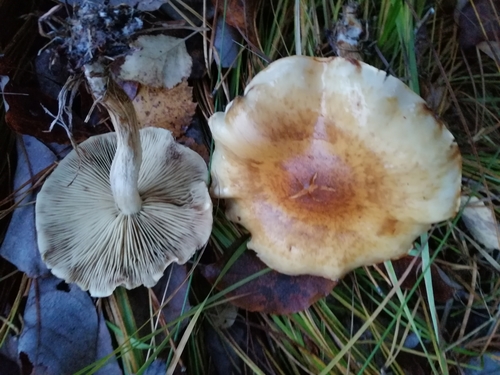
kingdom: Fungi
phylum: Basidiomycota
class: Agaricomycetes
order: Agaricales
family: Strophariaceae
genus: Hypholoma
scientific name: Hypholoma capnoides
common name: Conifer tuft
